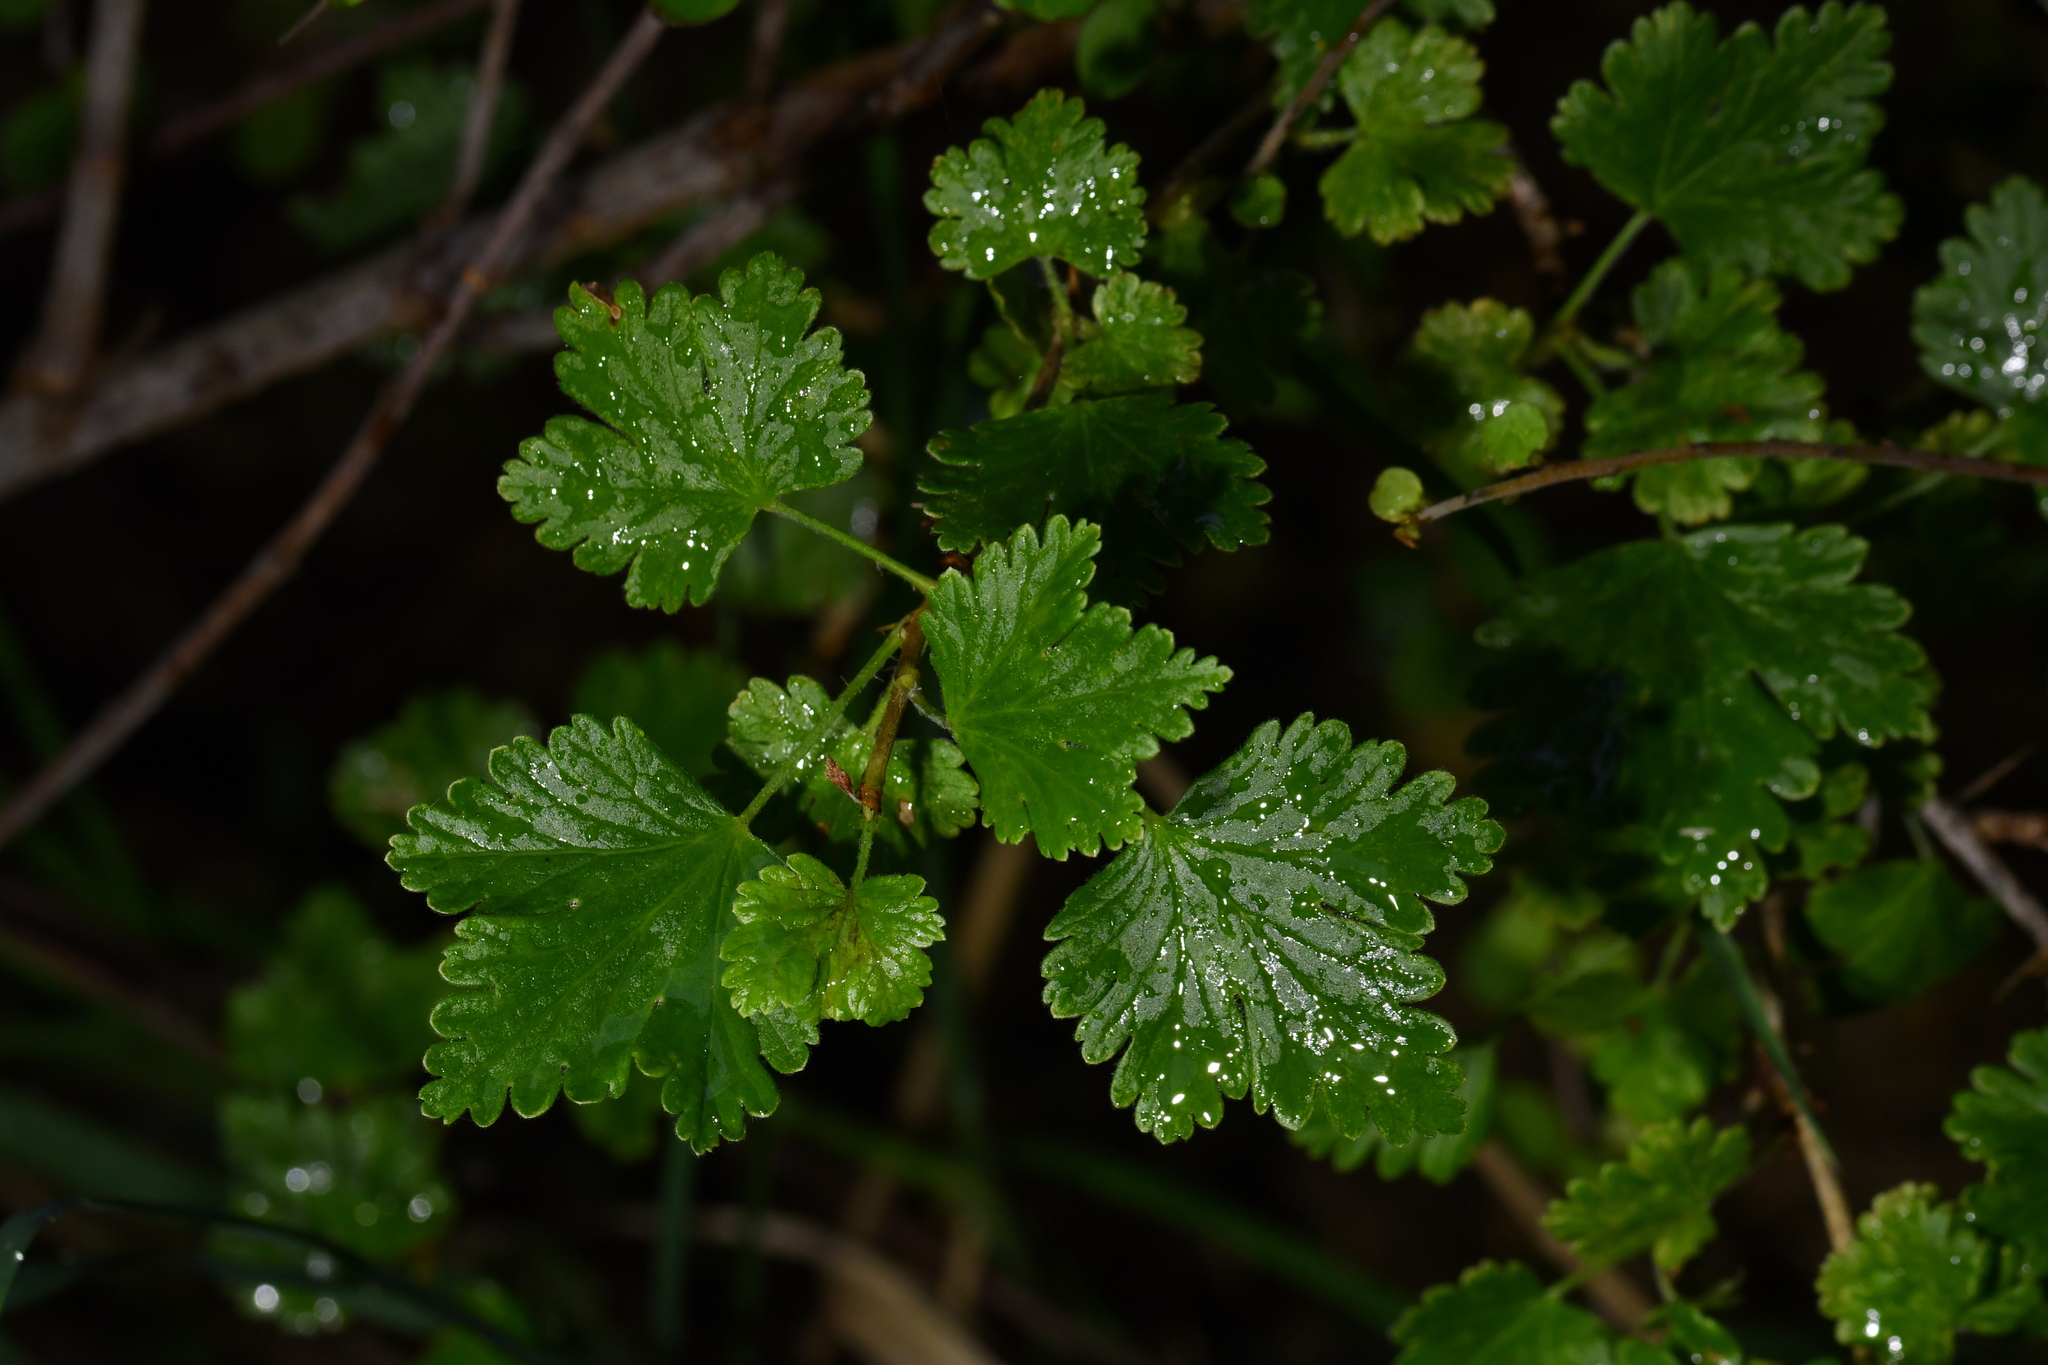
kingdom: Plantae
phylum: Tracheophyta
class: Magnoliopsida
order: Saxifragales
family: Grossulariaceae
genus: Ribes
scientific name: Ribes uva-crispa
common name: Gooseberry
